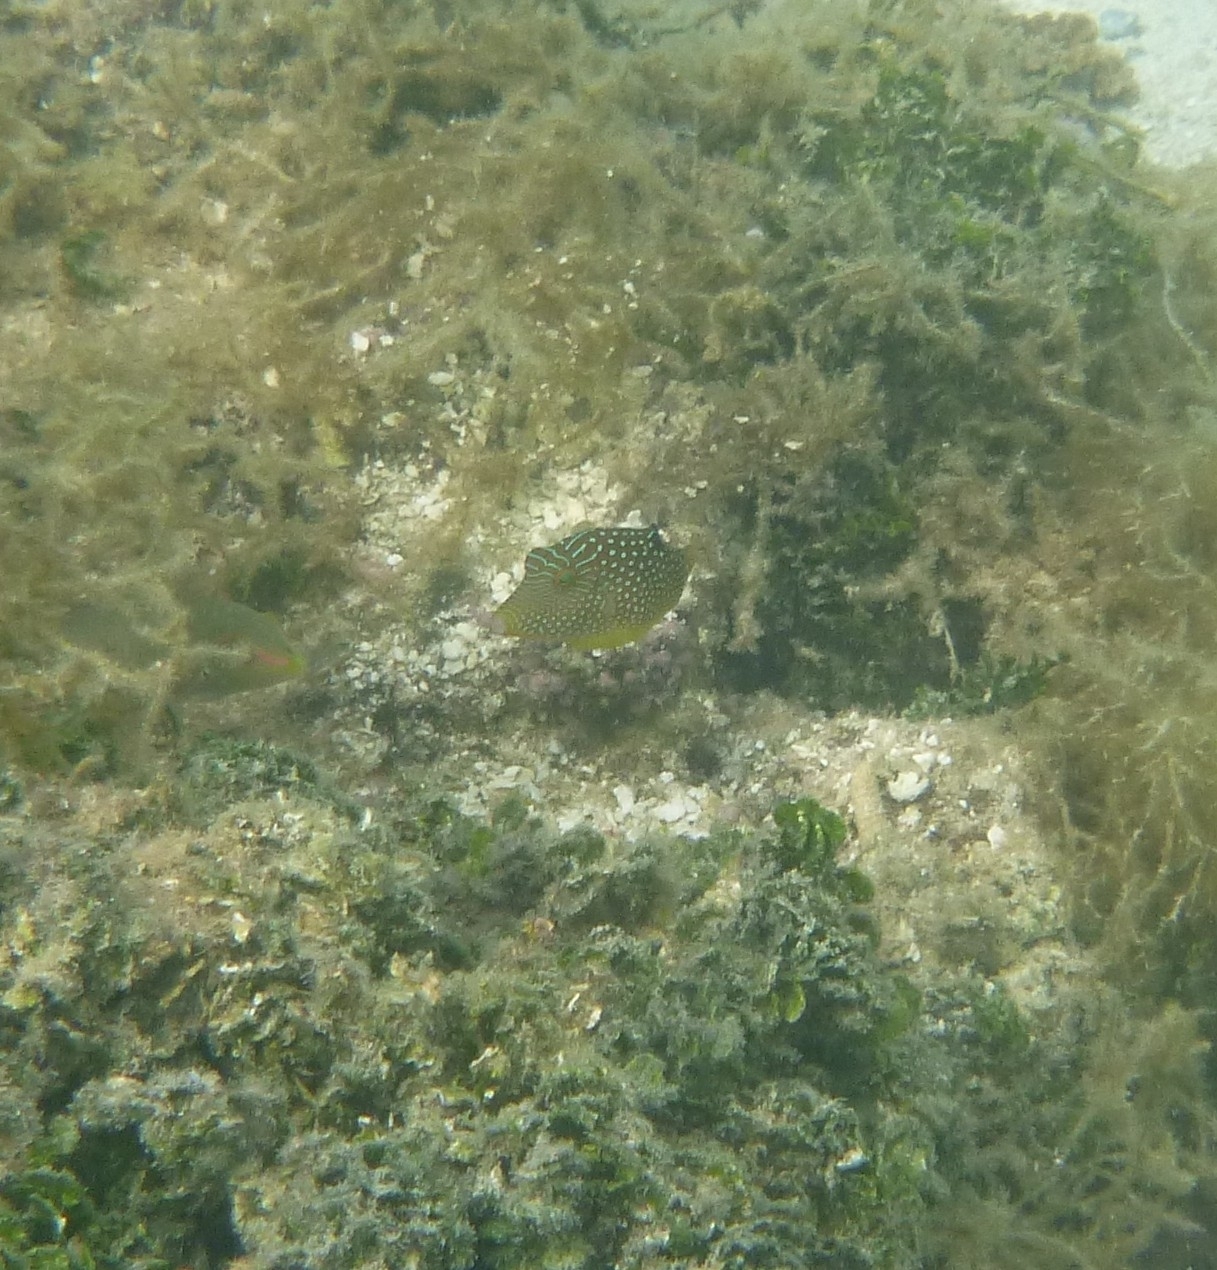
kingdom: Animalia
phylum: Chordata
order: Tetraodontiformes
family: Tetraodontidae
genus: Canthigaster
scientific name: Canthigaster solandri
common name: False-eye toby
